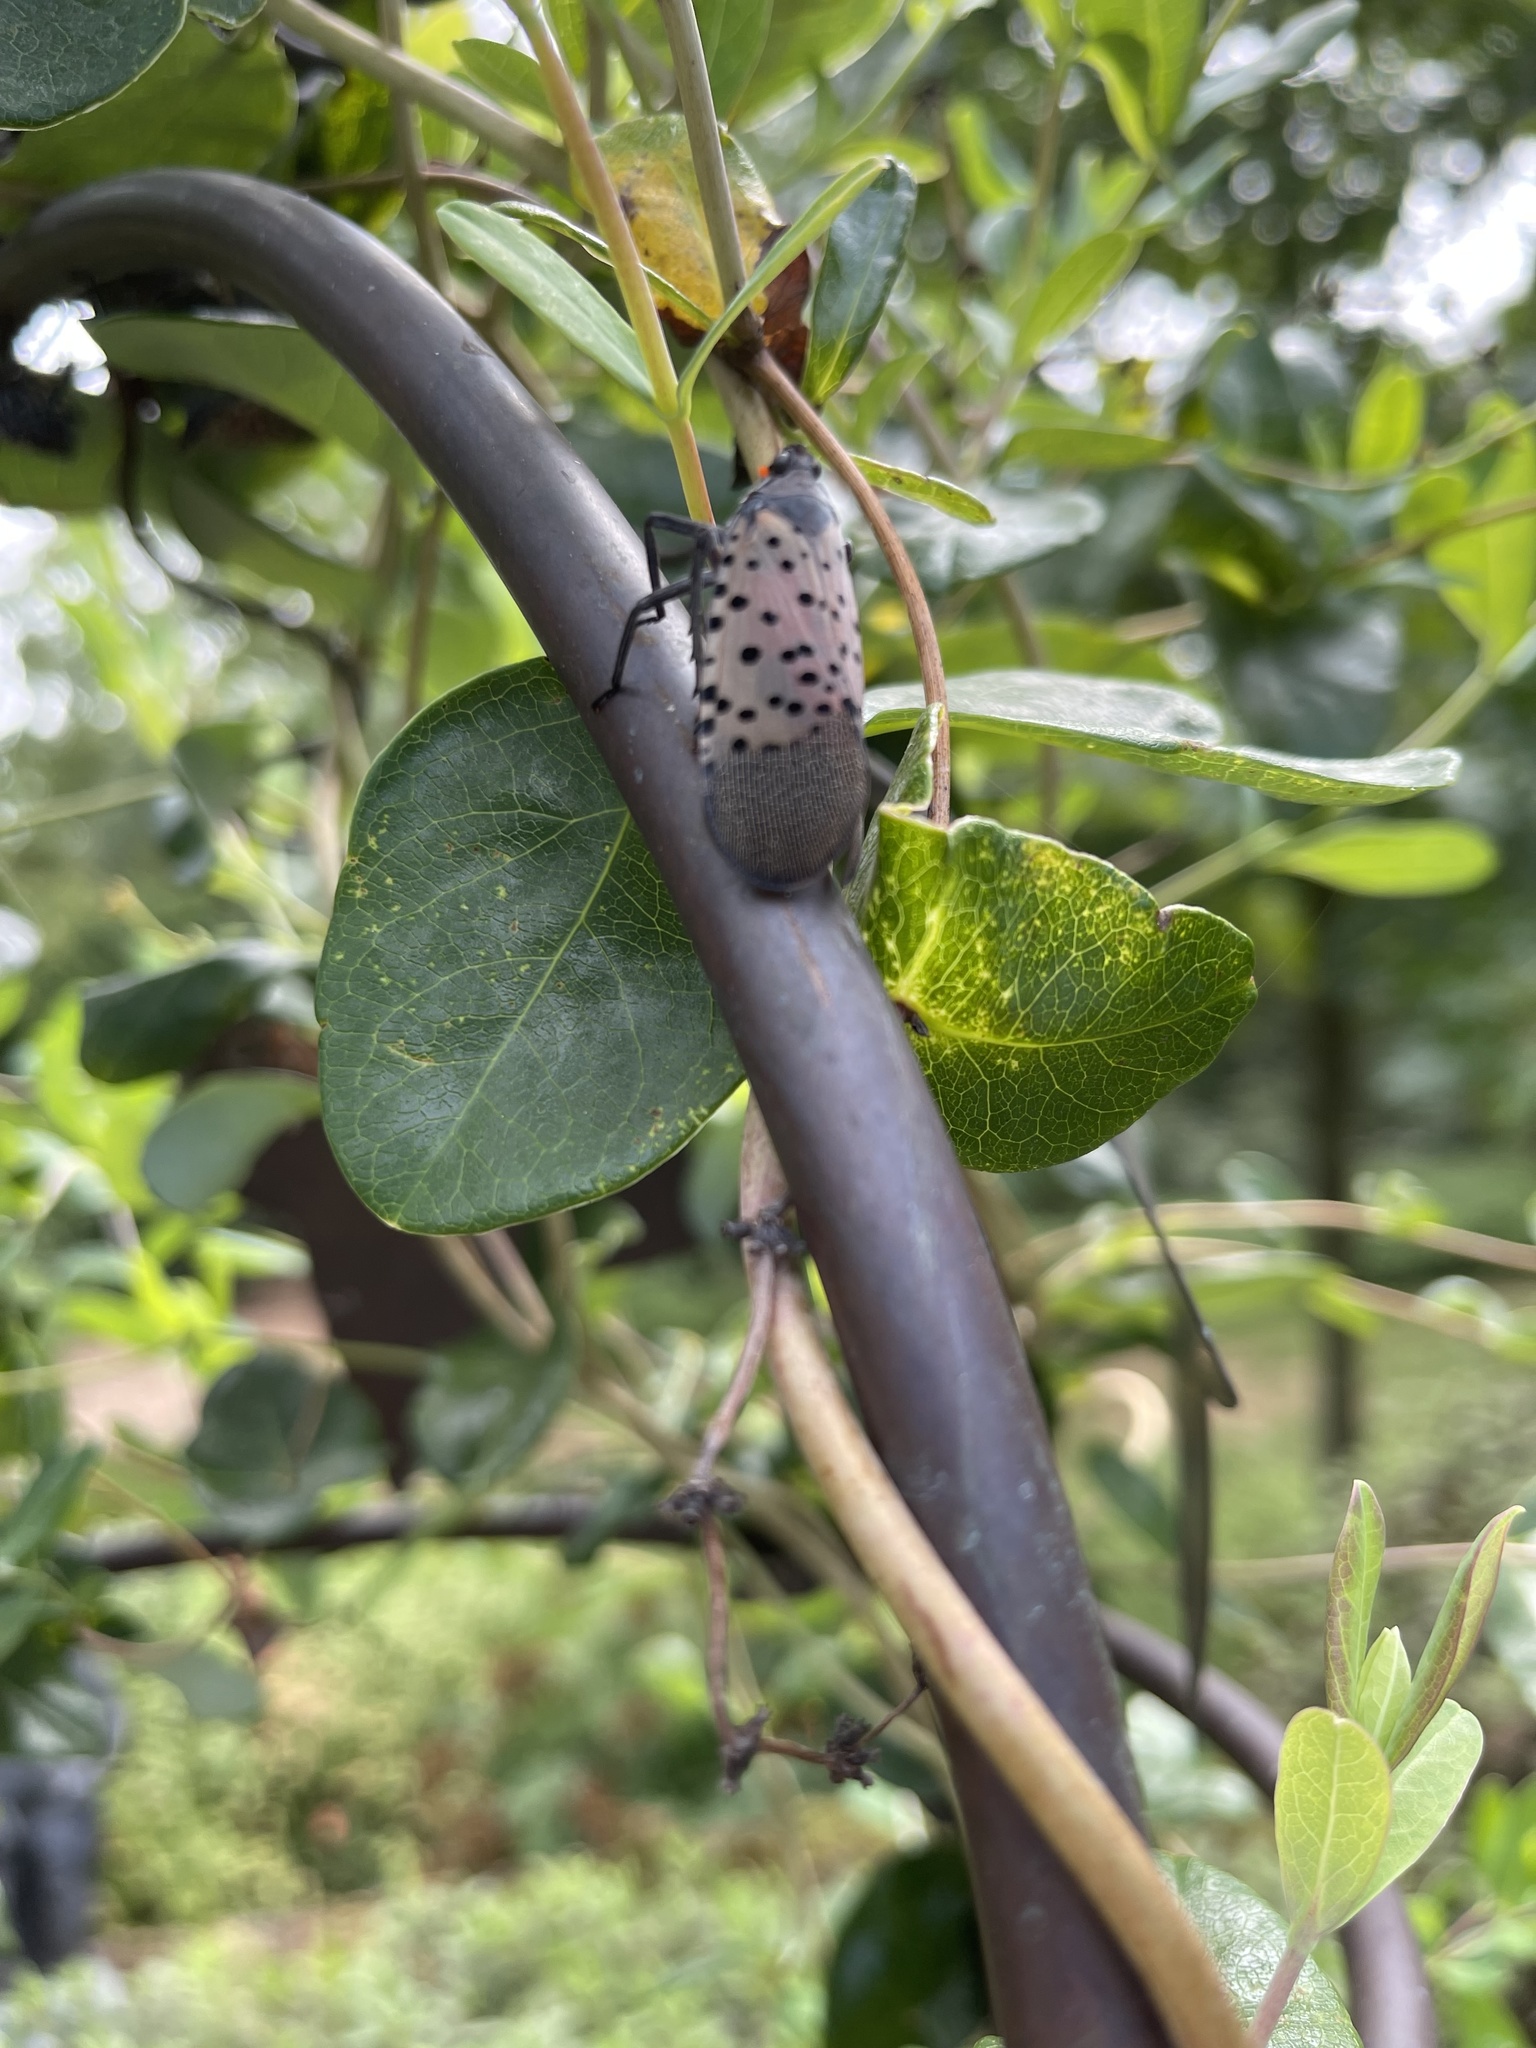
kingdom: Animalia
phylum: Arthropoda
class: Insecta
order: Hemiptera
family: Fulgoridae
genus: Lycorma
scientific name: Lycorma delicatula
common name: Spotted lanternfly
